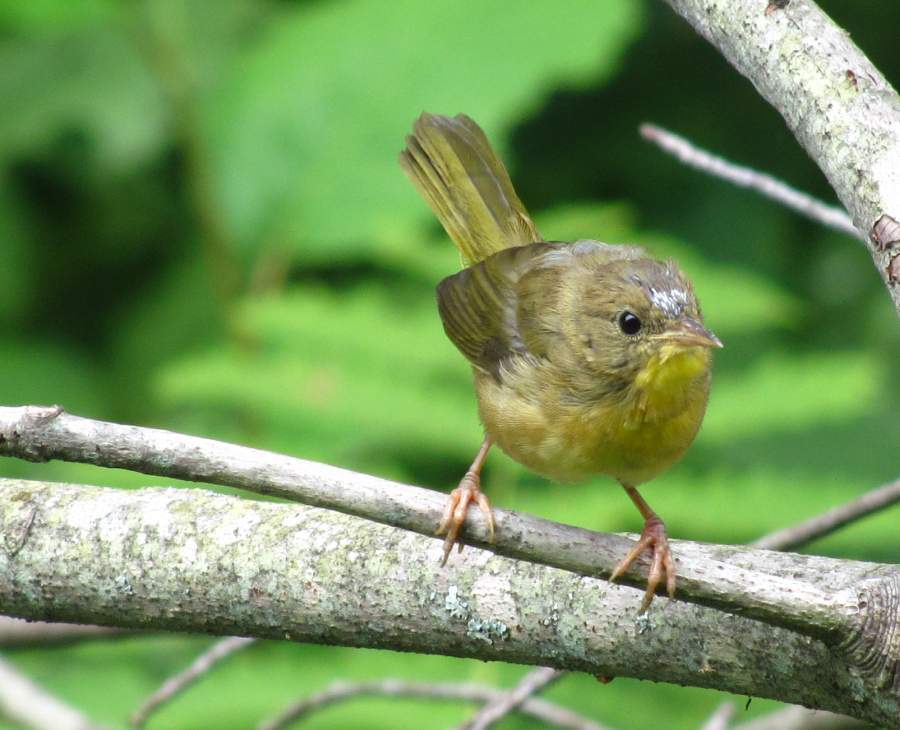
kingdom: Animalia
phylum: Chordata
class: Aves
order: Passeriformes
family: Parulidae
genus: Geothlypis
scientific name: Geothlypis trichas
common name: Common yellowthroat
